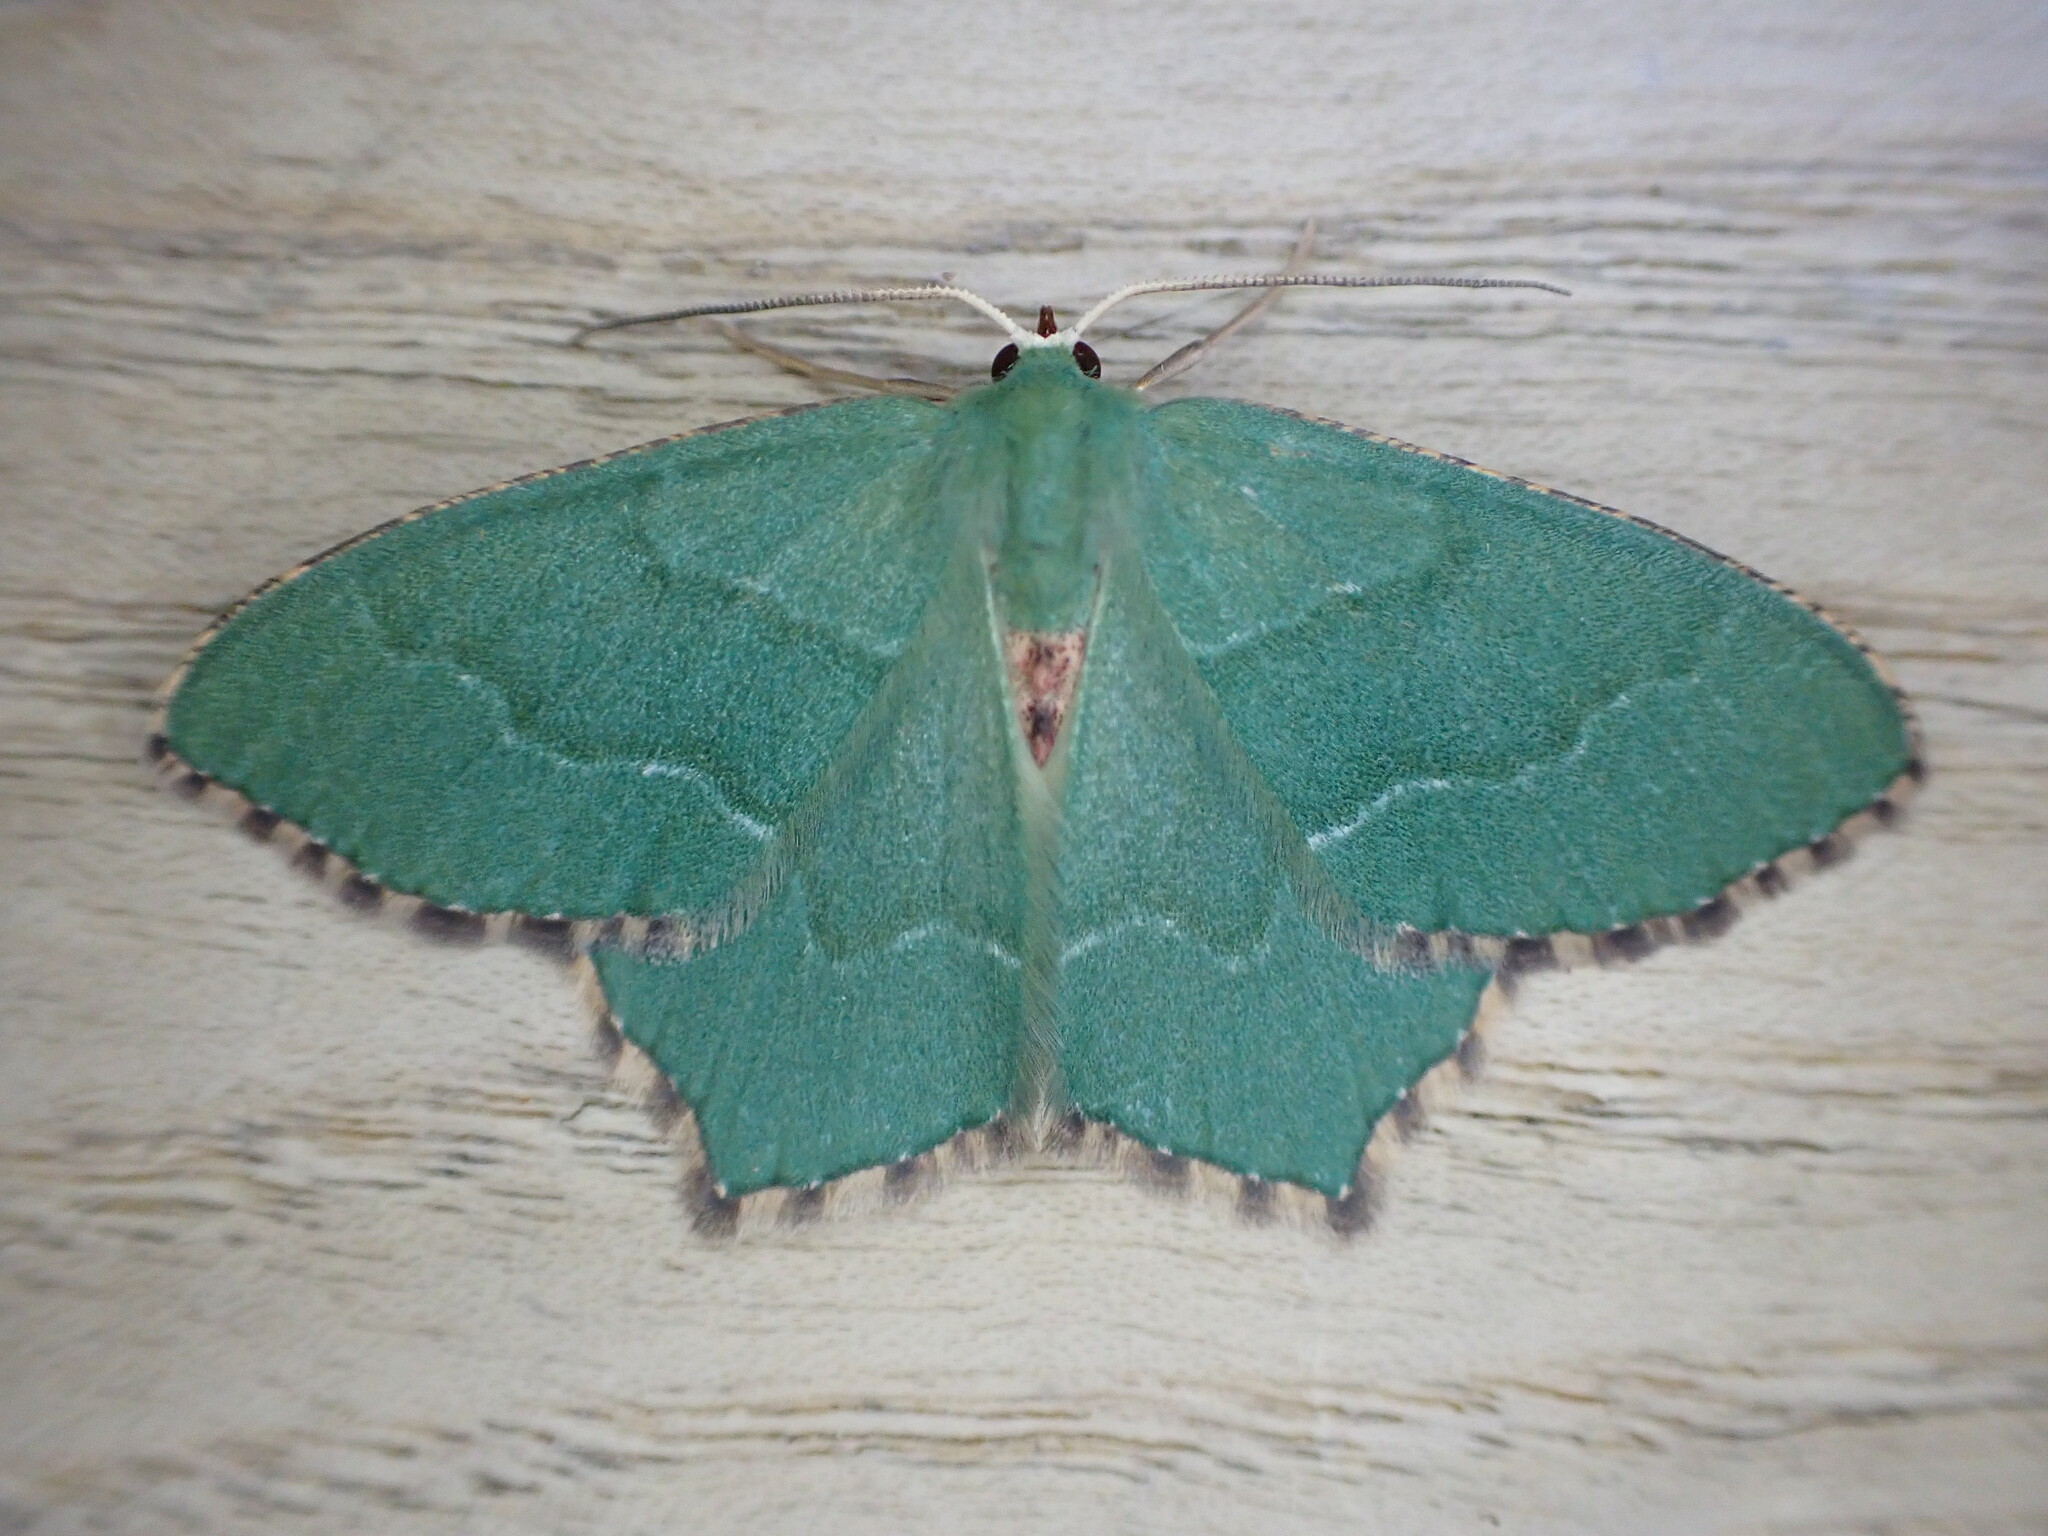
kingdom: Animalia
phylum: Arthropoda
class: Insecta
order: Lepidoptera
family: Geometridae
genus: Hemithea
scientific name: Hemithea aestivaria
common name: Common emerald
